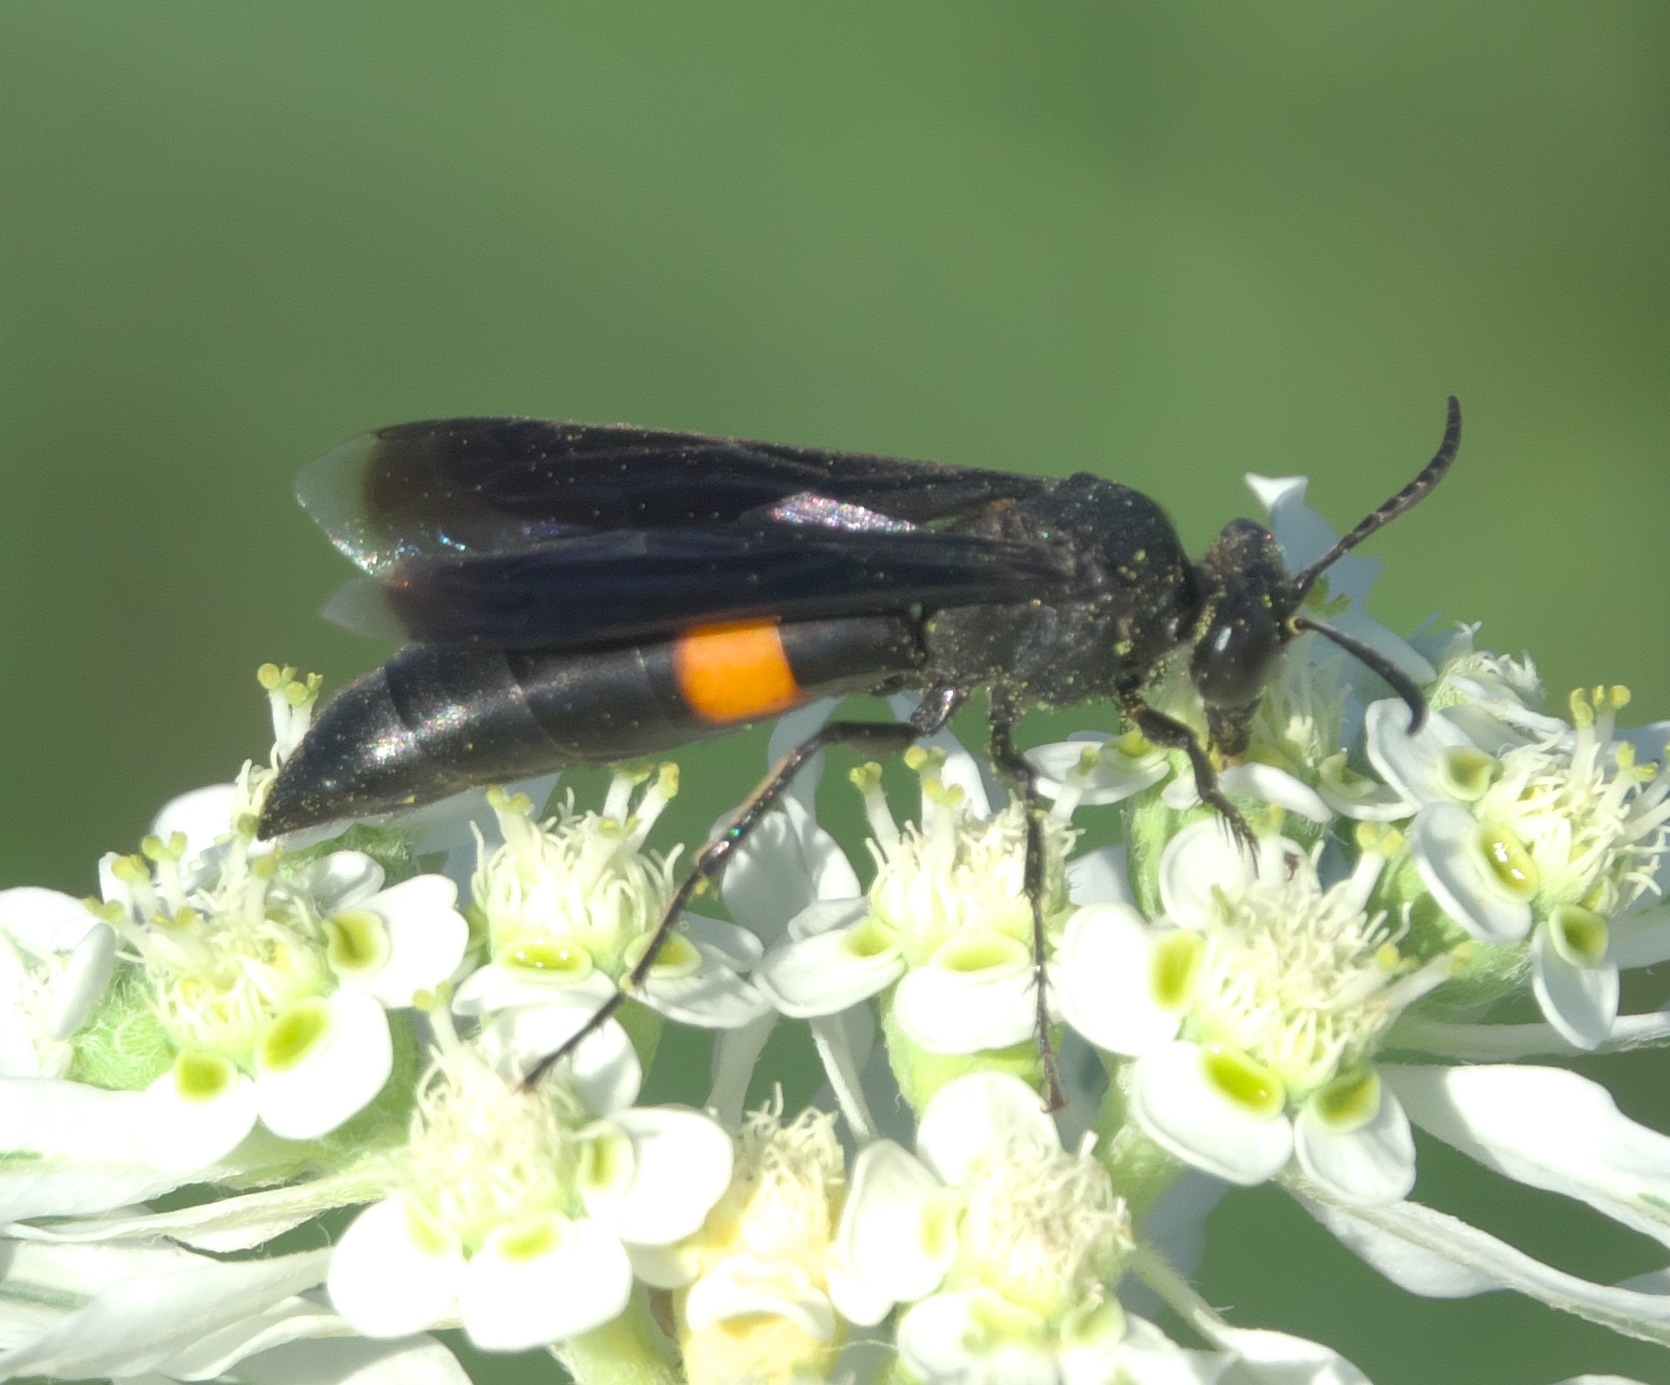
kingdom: Animalia
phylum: Arthropoda
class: Insecta
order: Hymenoptera
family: Crabronidae
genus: Stizoides
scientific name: Stizoides renicinctus
